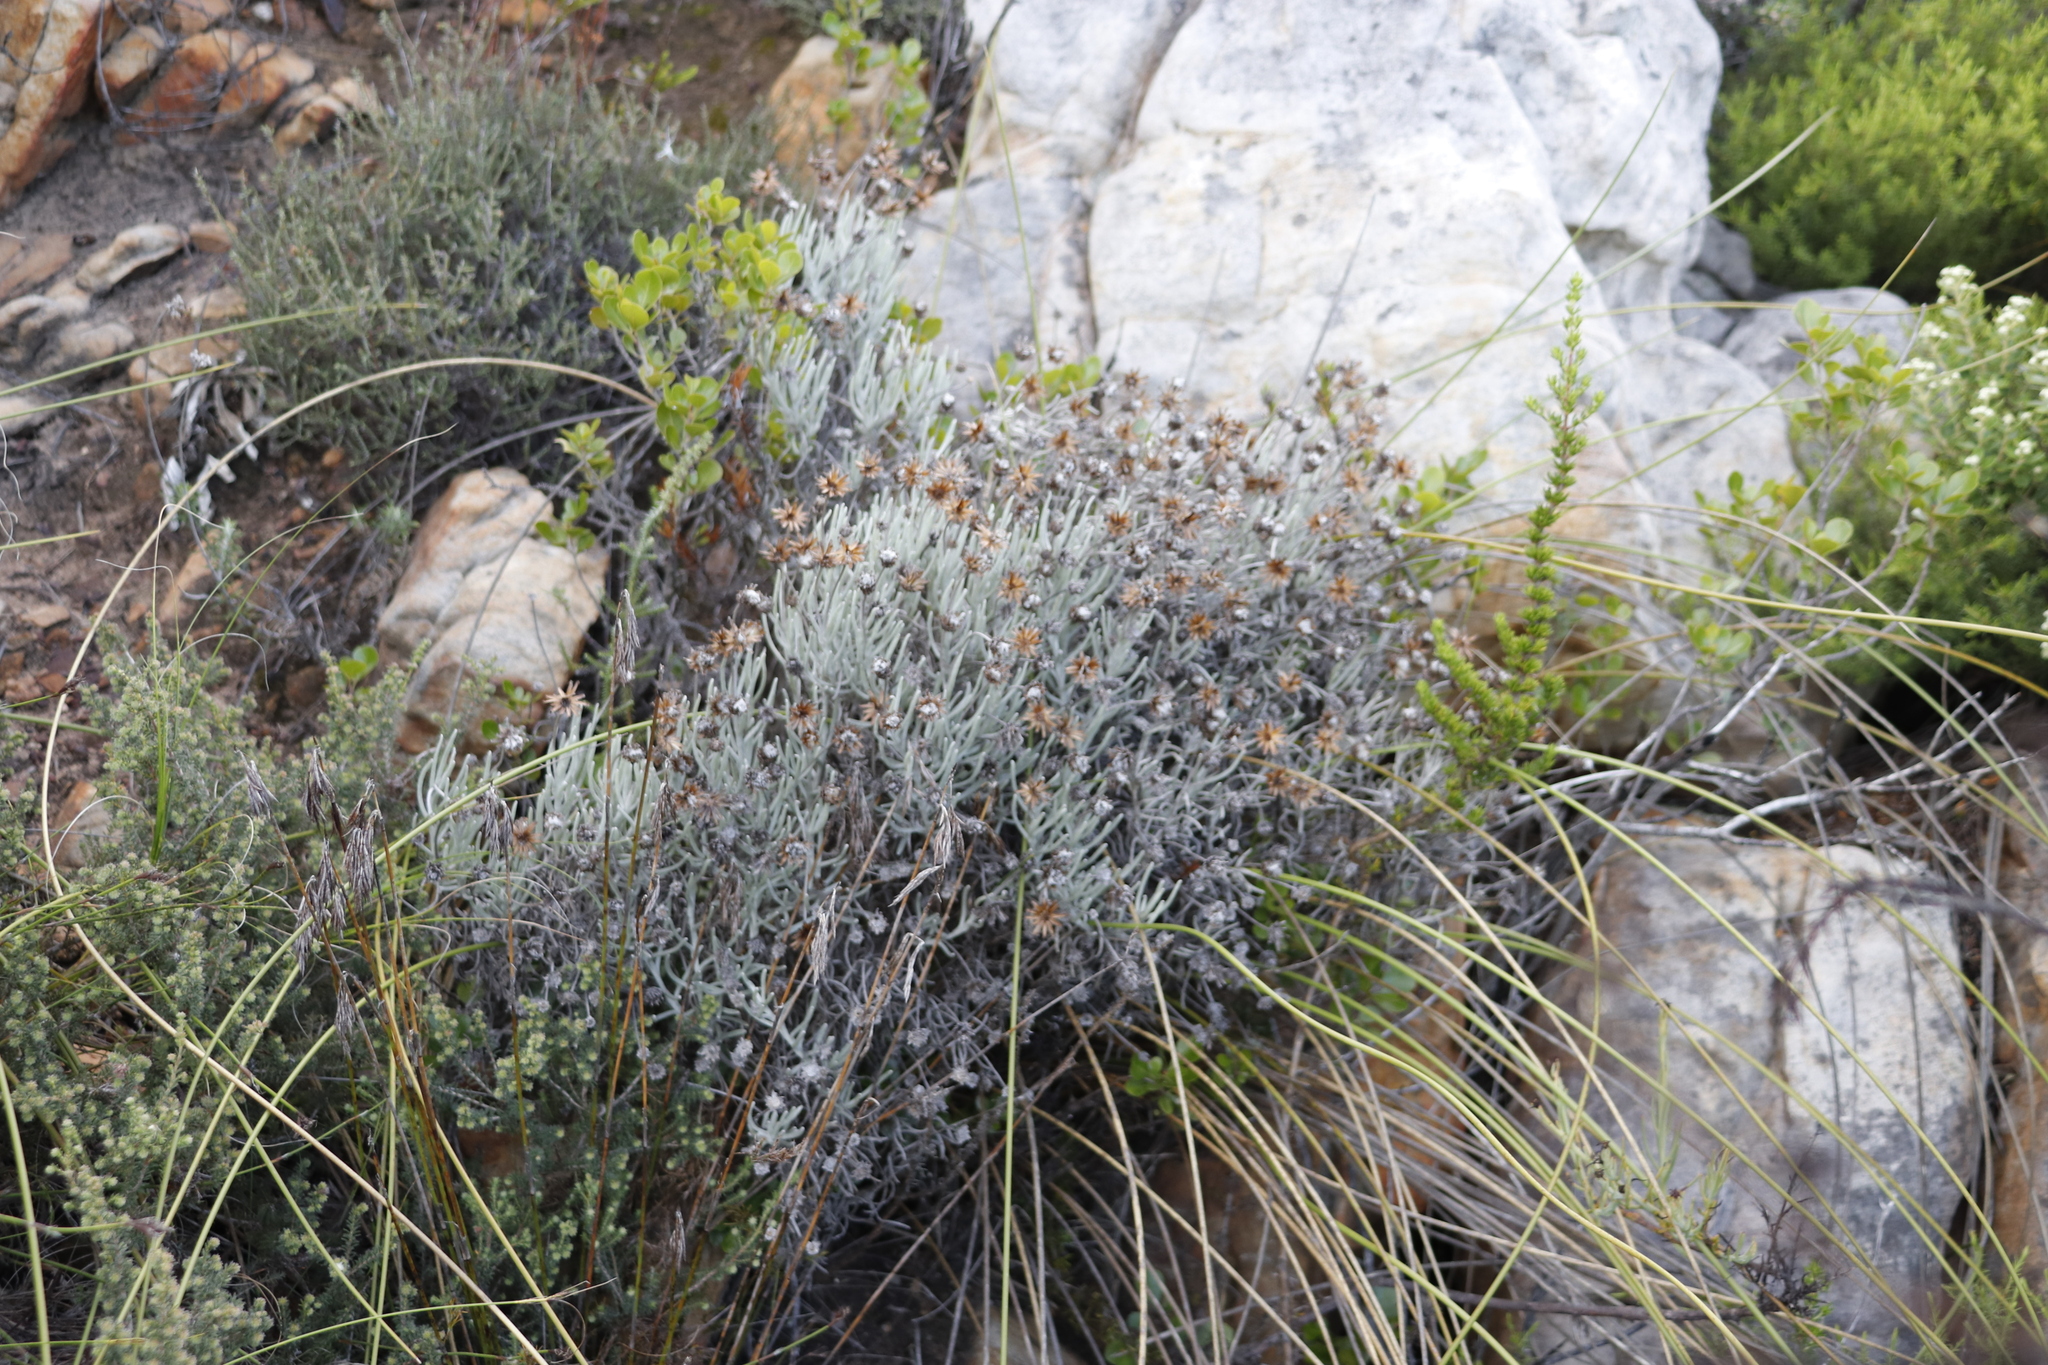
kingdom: Plantae
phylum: Tracheophyta
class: Magnoliopsida
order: Asterales
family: Asteraceae
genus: Syncarpha
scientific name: Syncarpha gnaphaloides
